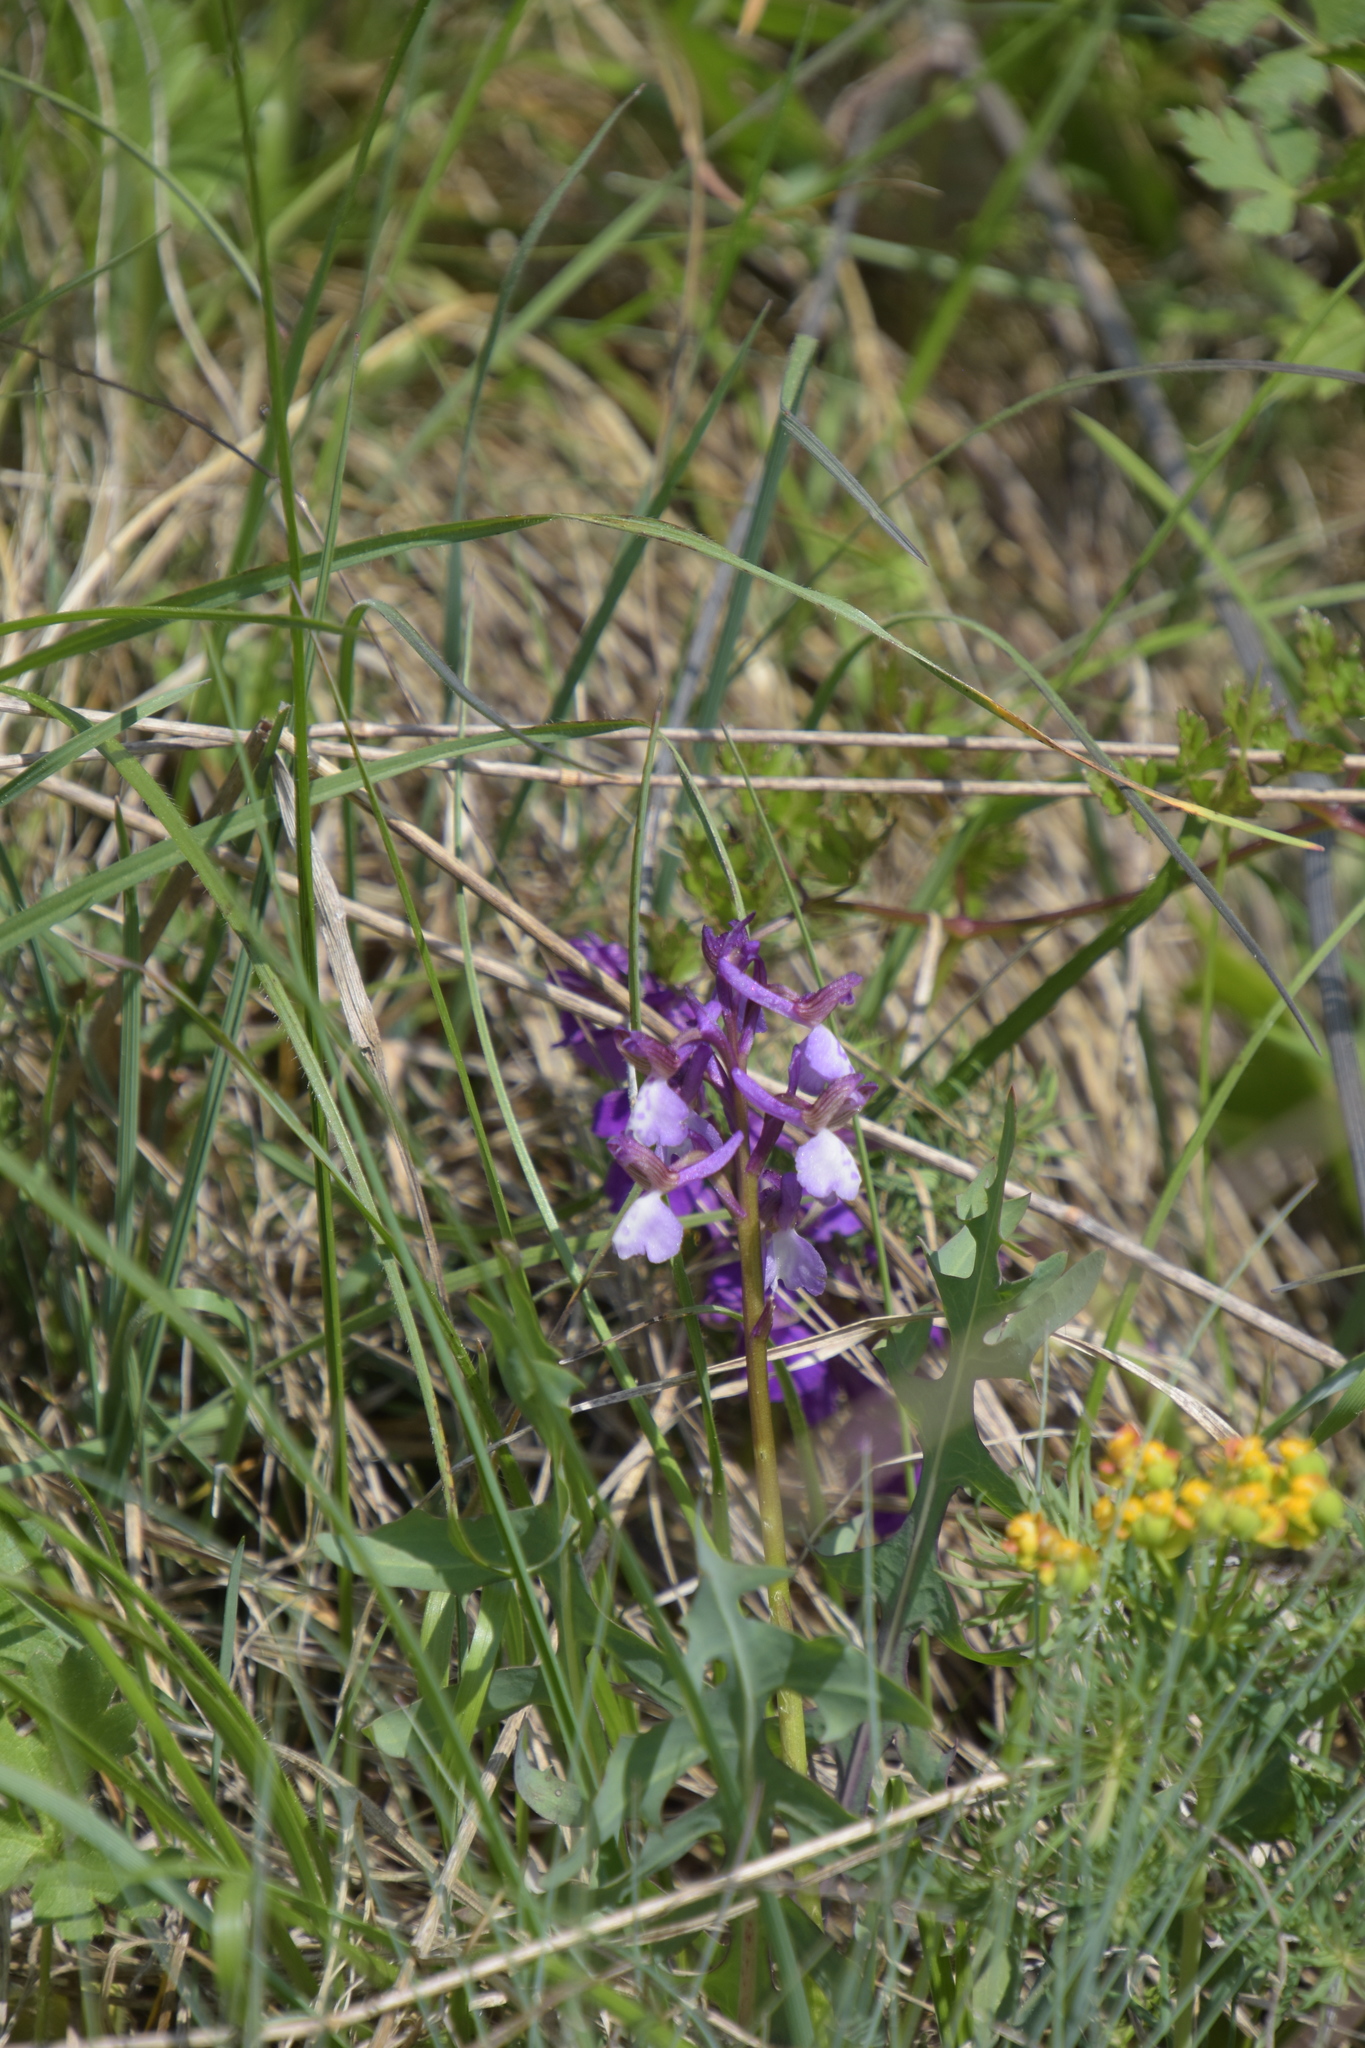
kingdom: Plantae
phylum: Tracheophyta
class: Liliopsida
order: Asparagales
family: Orchidaceae
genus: Anacamptis
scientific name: Anacamptis morio
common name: Green-winged orchid
